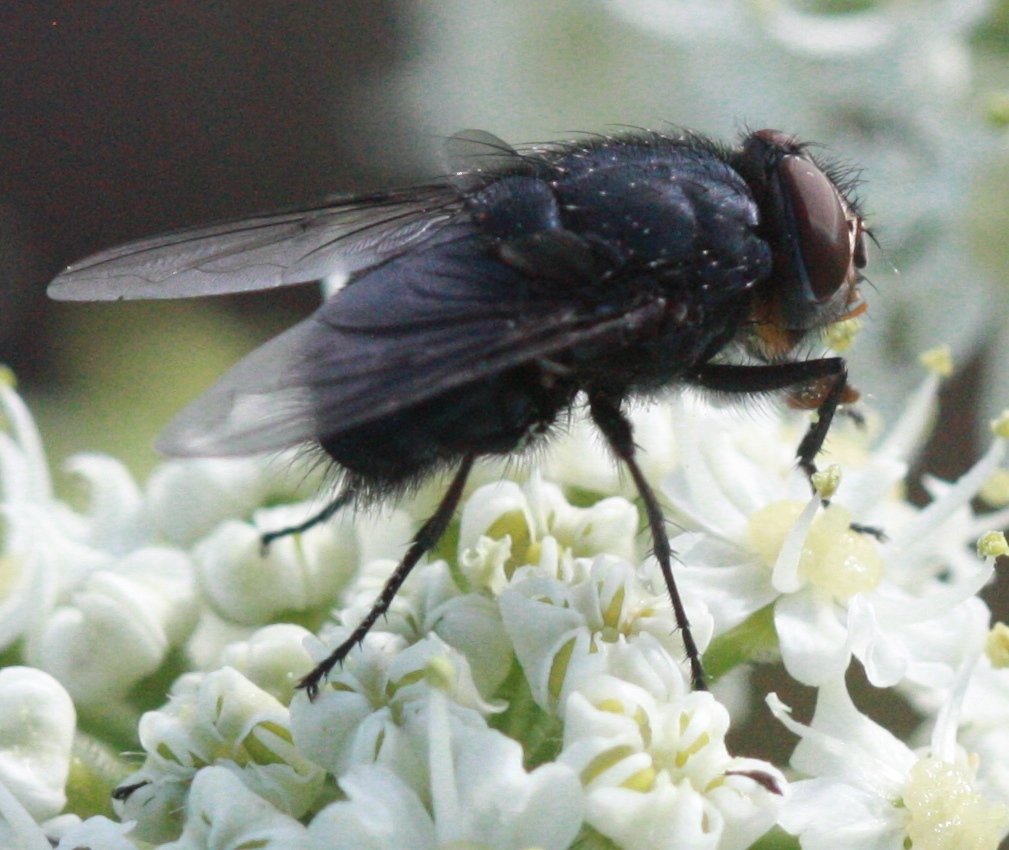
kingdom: Animalia
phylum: Arthropoda
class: Insecta
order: Diptera
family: Calliphoridae
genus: Calliphora
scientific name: Calliphora vomitoria
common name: Blue bottle fly
